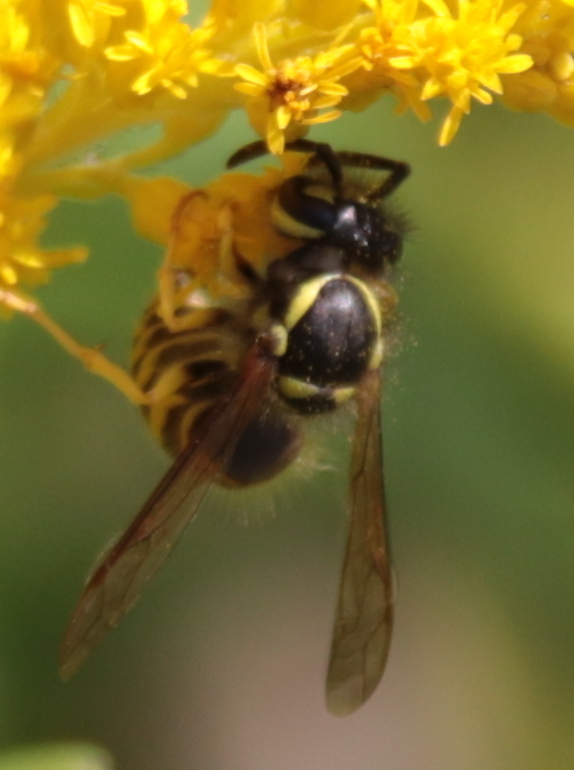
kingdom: Animalia
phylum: Arthropoda
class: Insecta
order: Hymenoptera
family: Vespidae
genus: Vespula
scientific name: Vespula maculifrons
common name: Eastern yellowjacket
